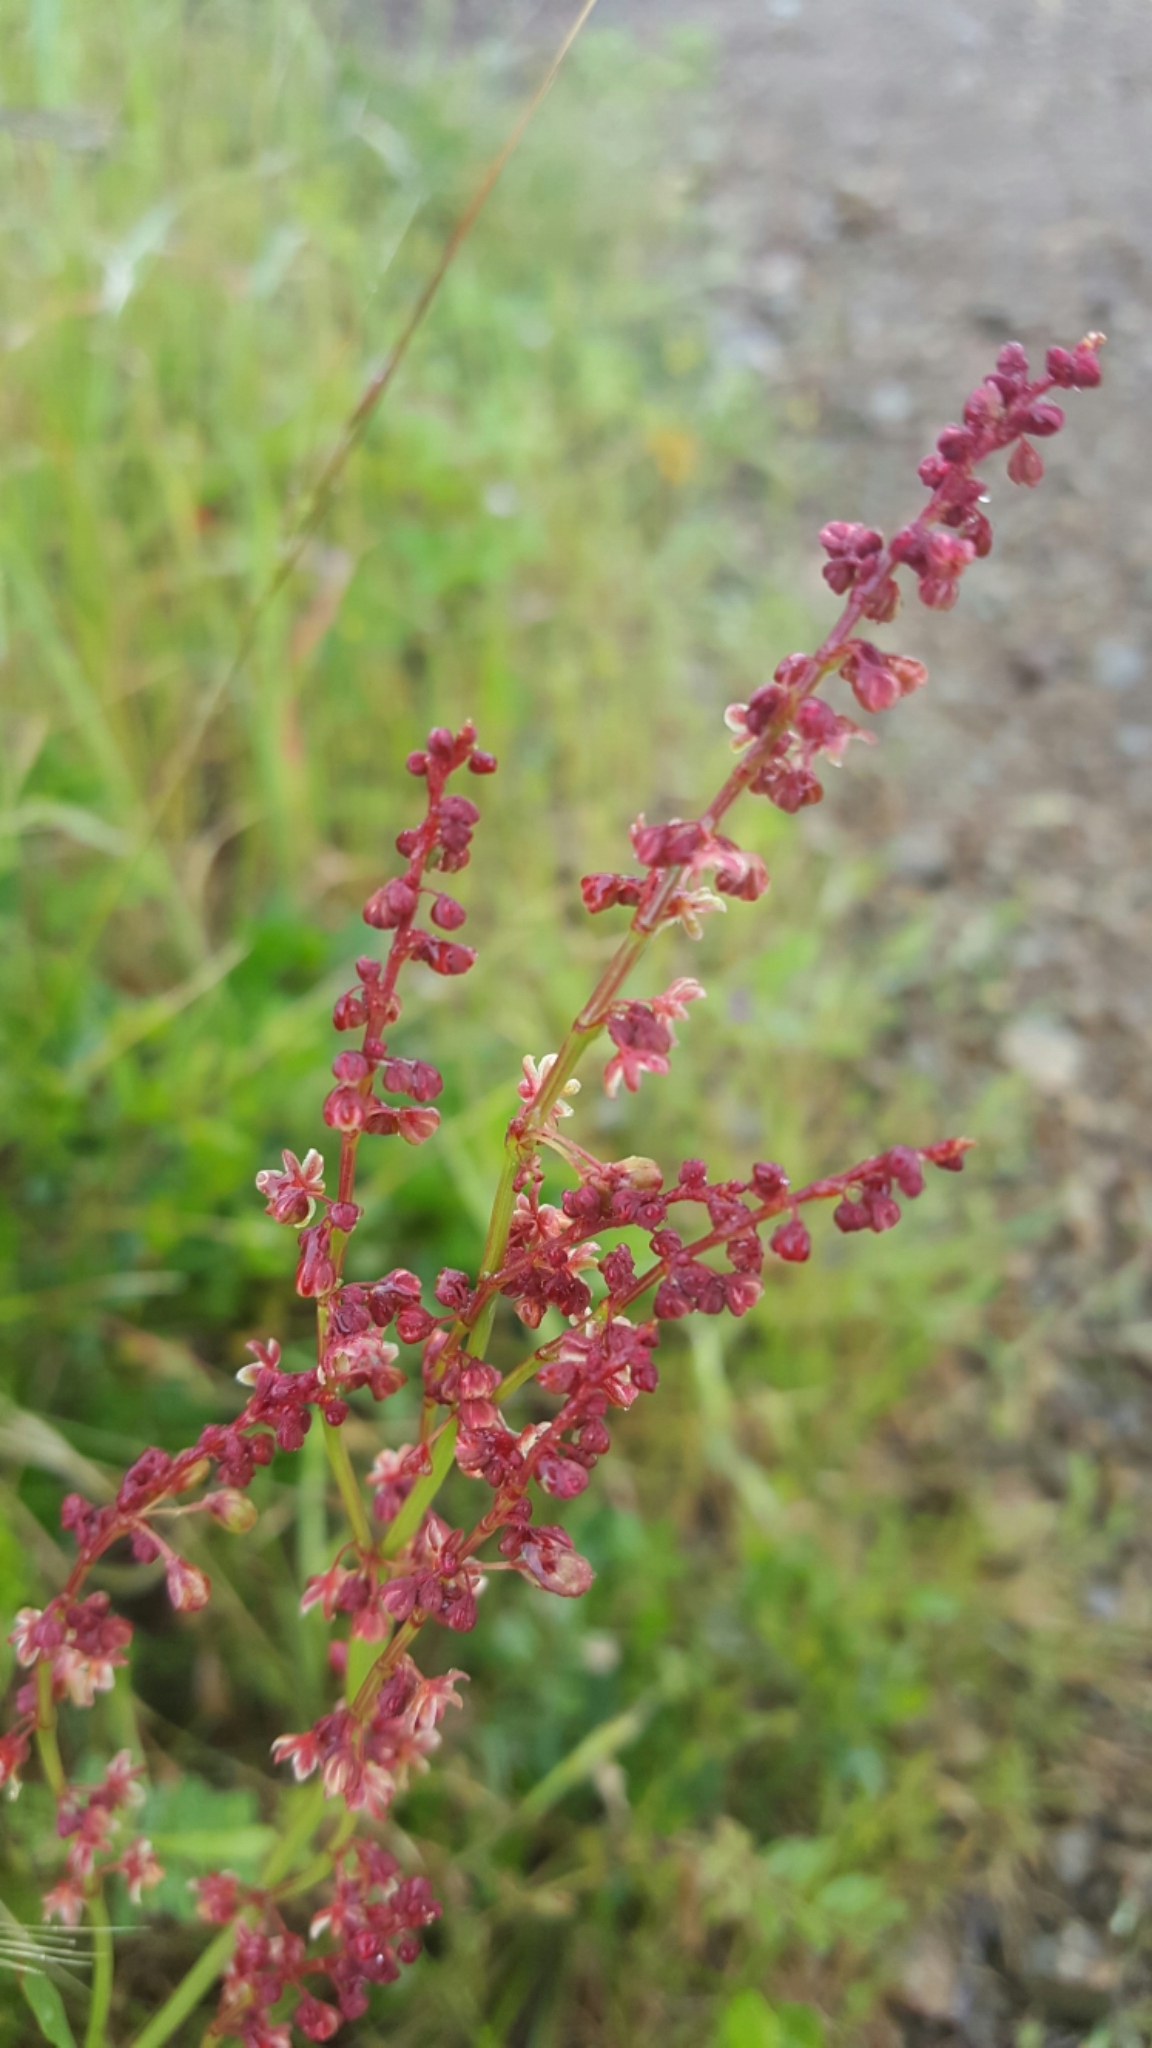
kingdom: Plantae
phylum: Tracheophyta
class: Magnoliopsida
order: Caryophyllales
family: Polygonaceae
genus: Rumex
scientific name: Rumex acetosella
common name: Common sheep sorrel
